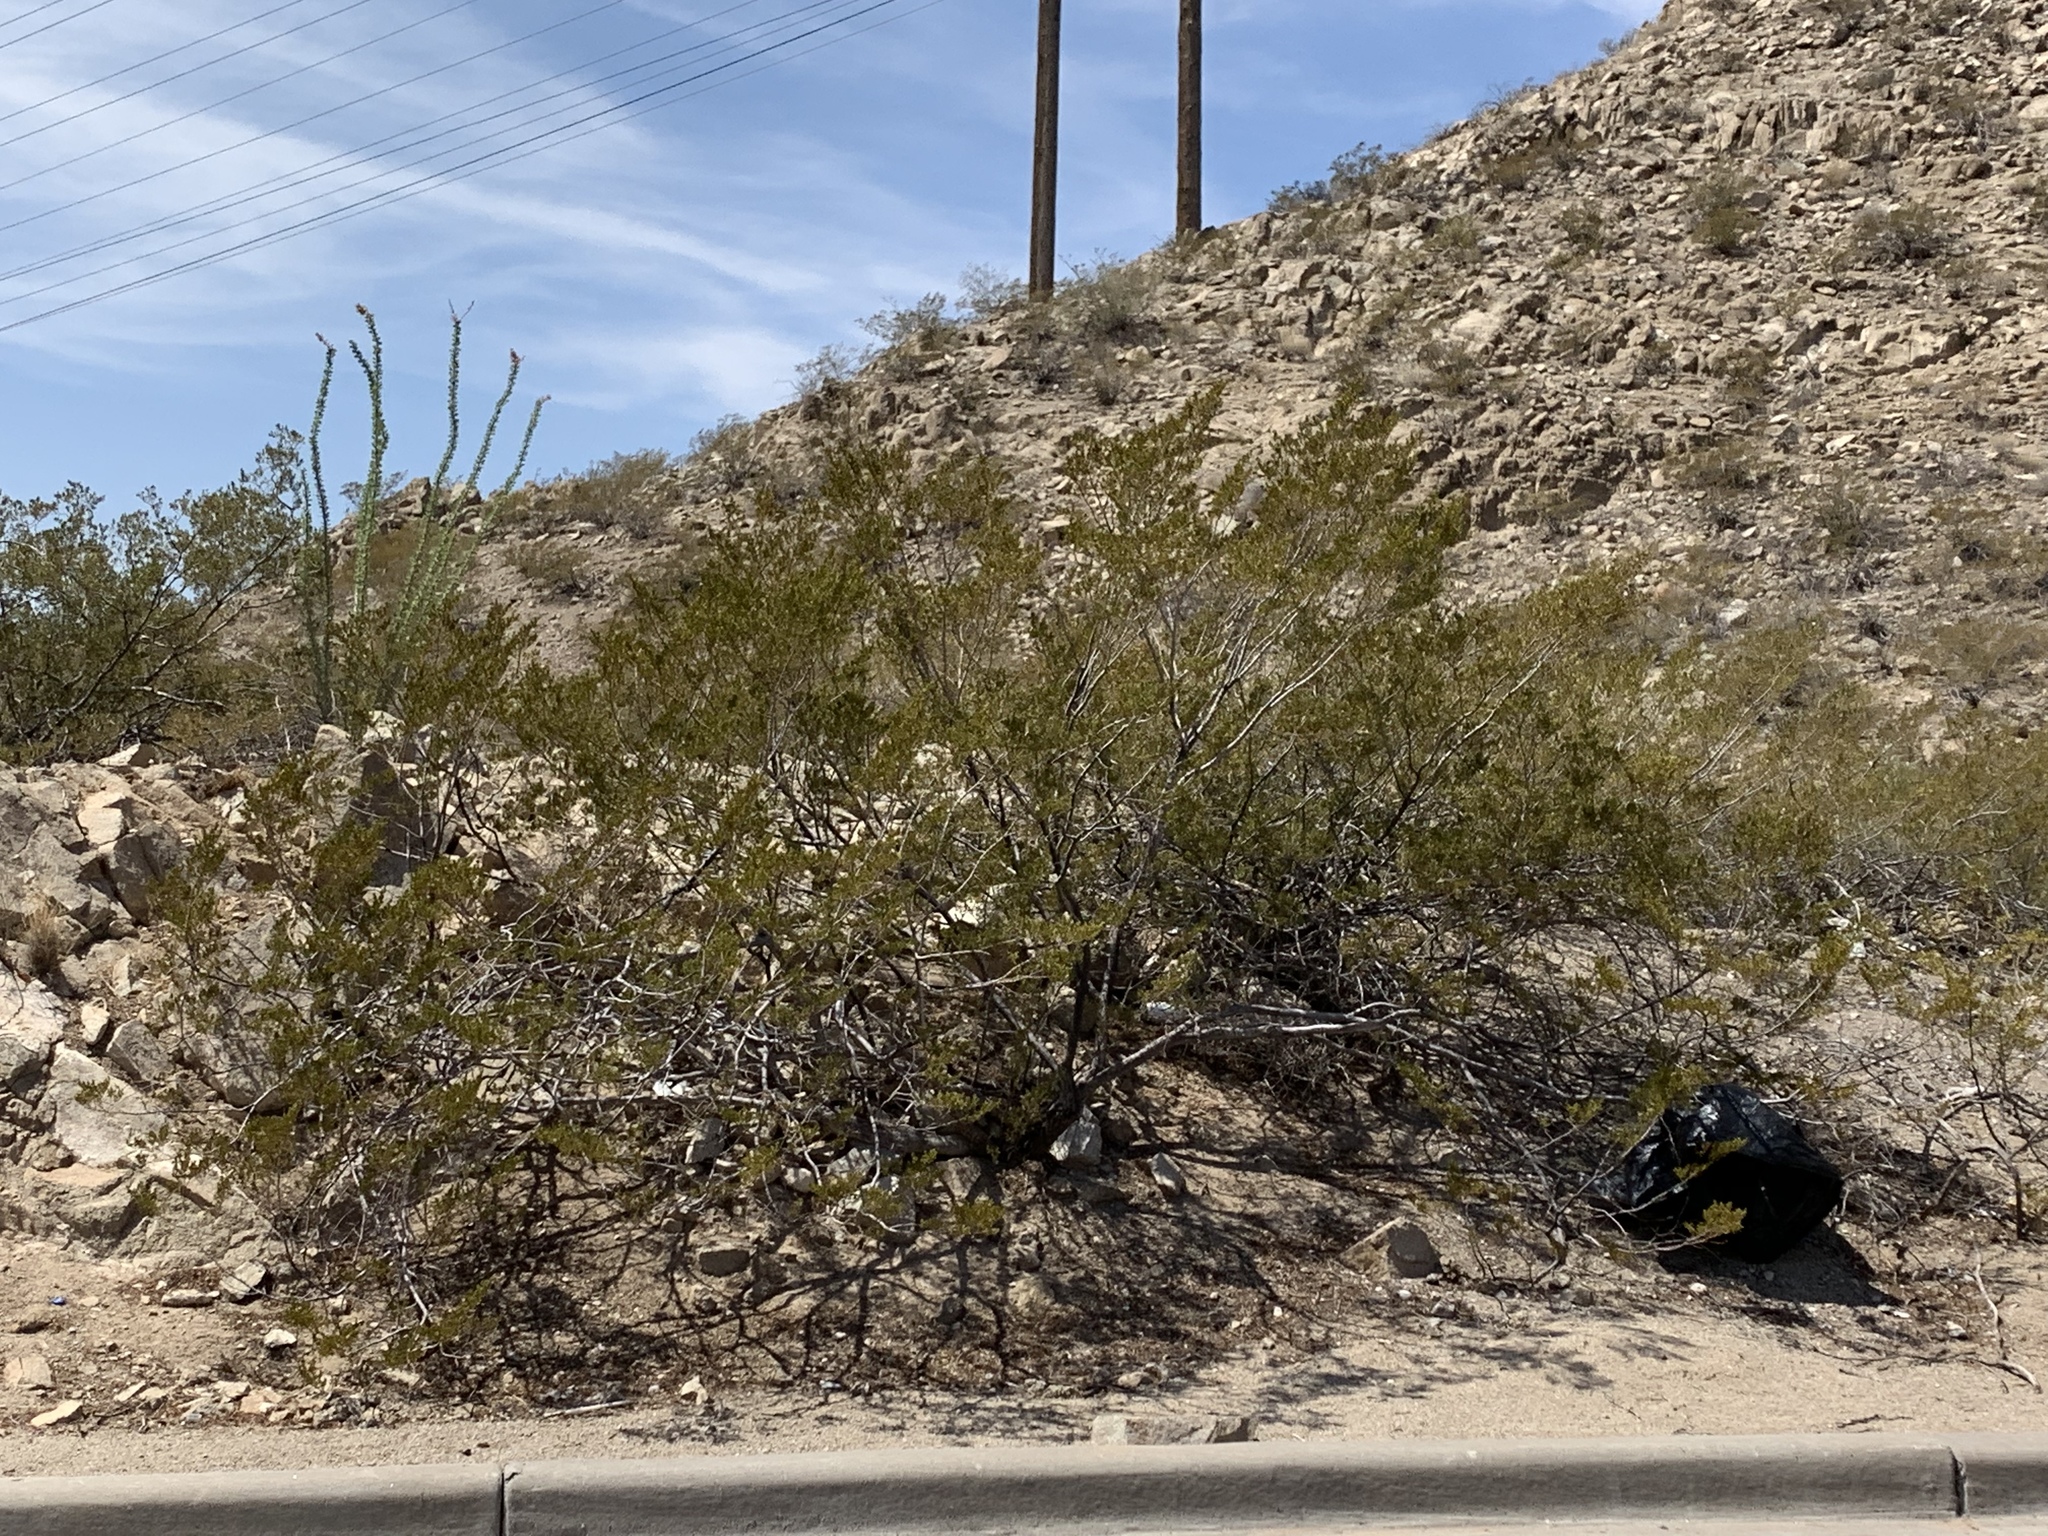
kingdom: Plantae
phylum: Tracheophyta
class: Magnoliopsida
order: Zygophyllales
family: Zygophyllaceae
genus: Larrea
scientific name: Larrea tridentata
